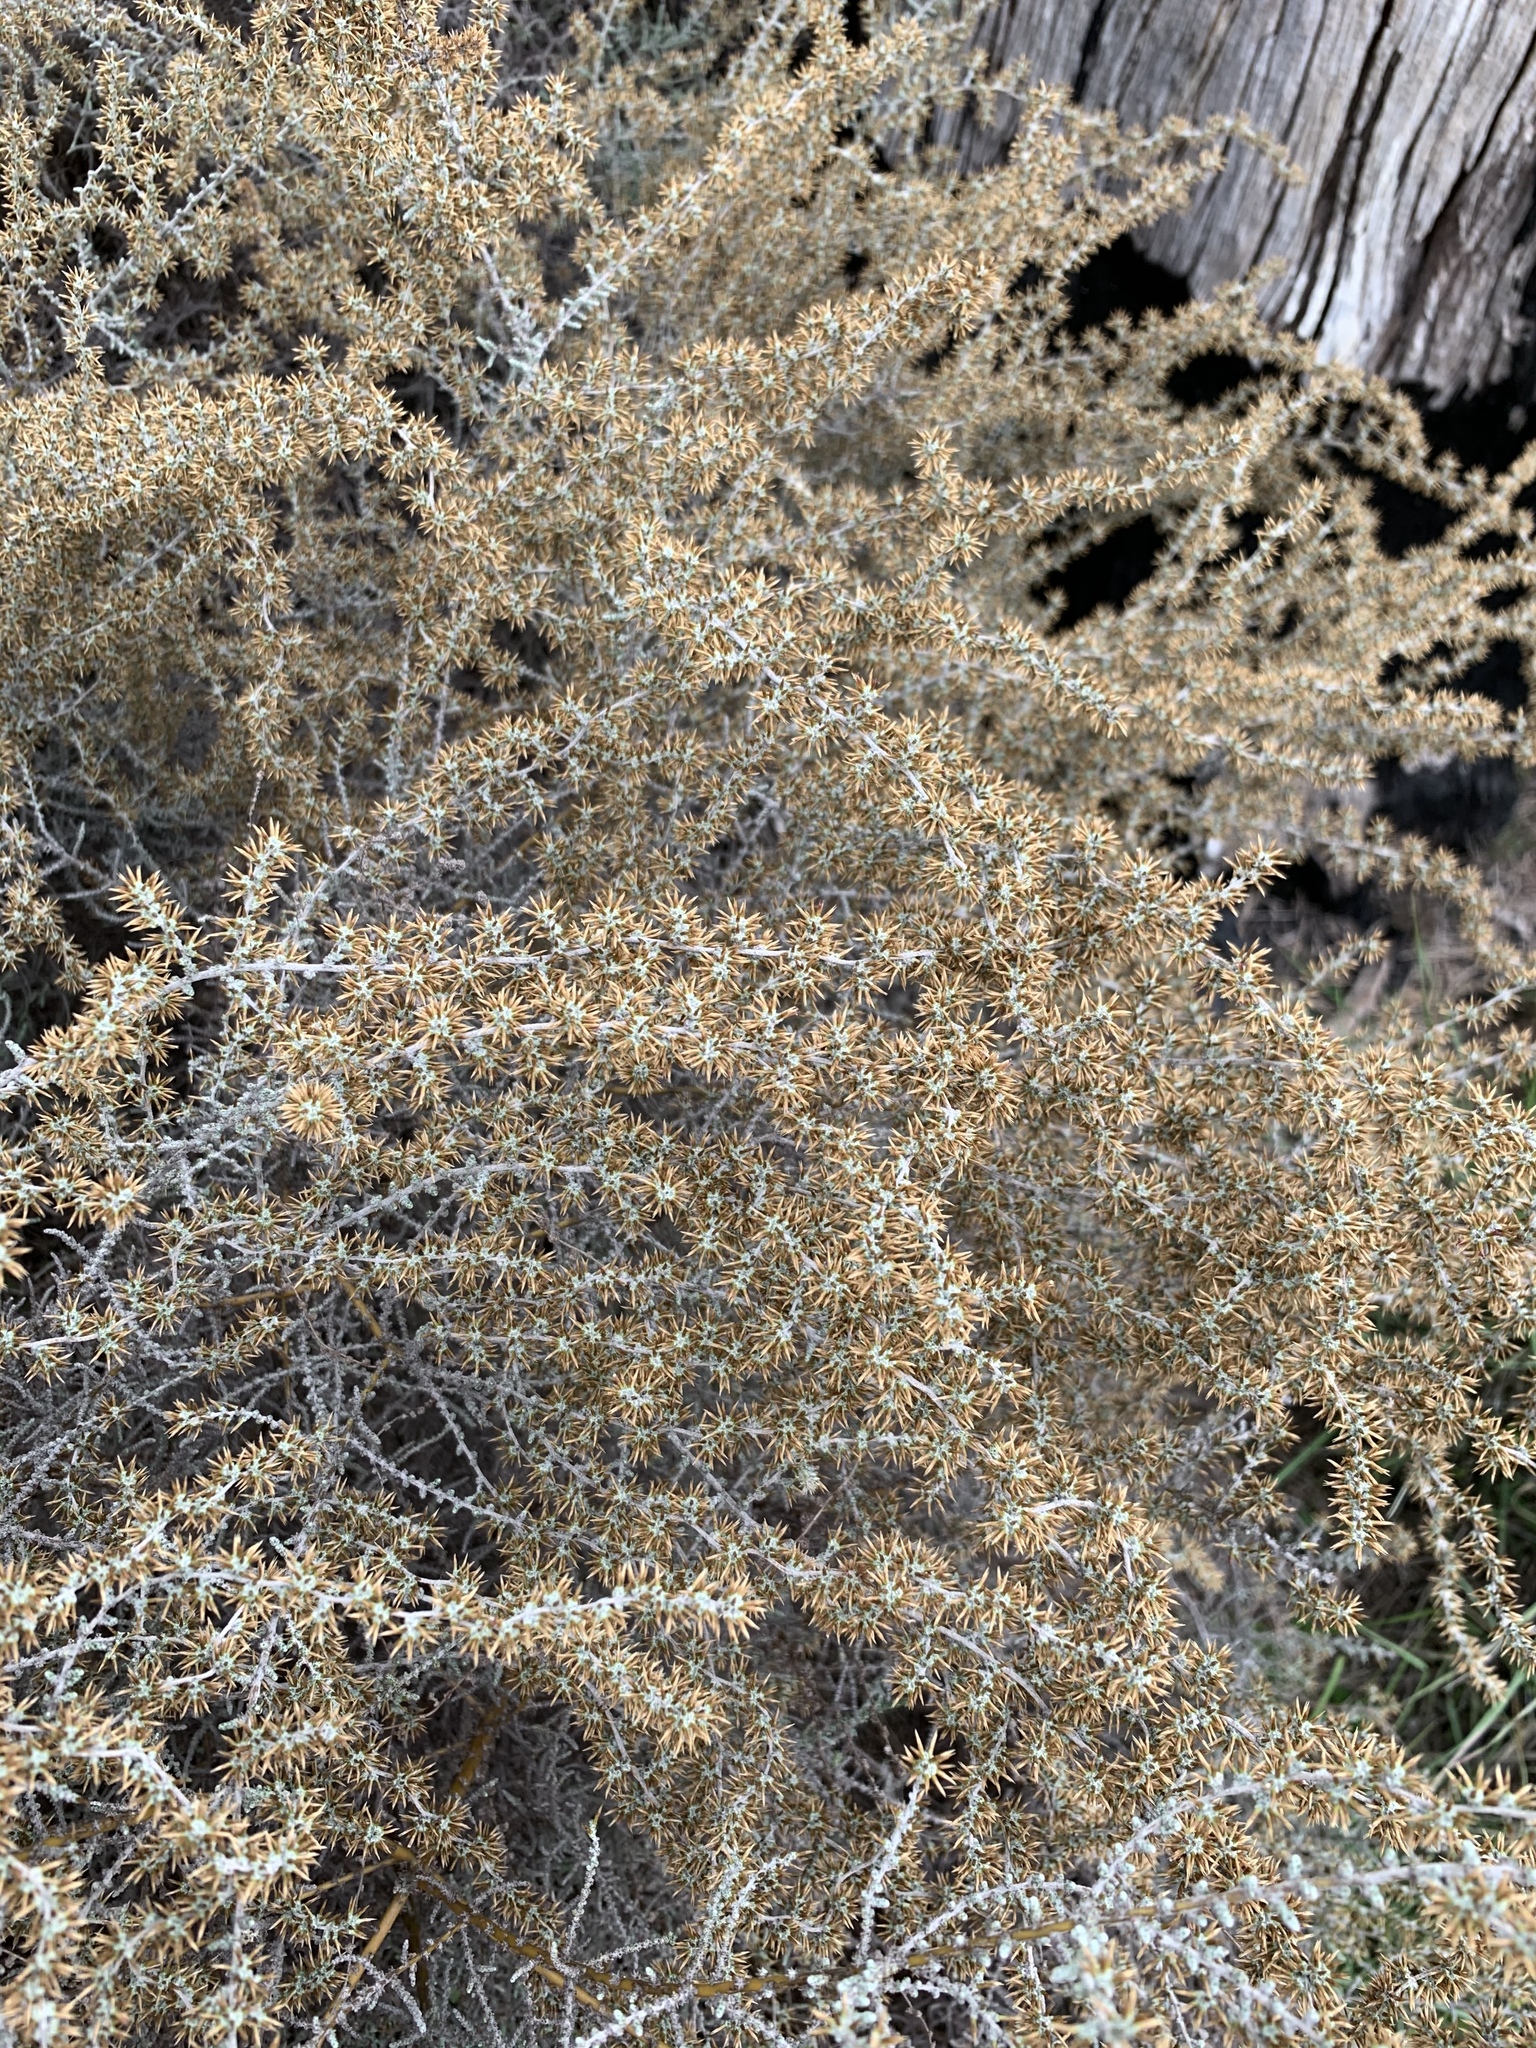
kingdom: Plantae
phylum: Tracheophyta
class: Magnoliopsida
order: Asterales
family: Asteraceae
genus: Seriphium
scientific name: Seriphium plumosum
